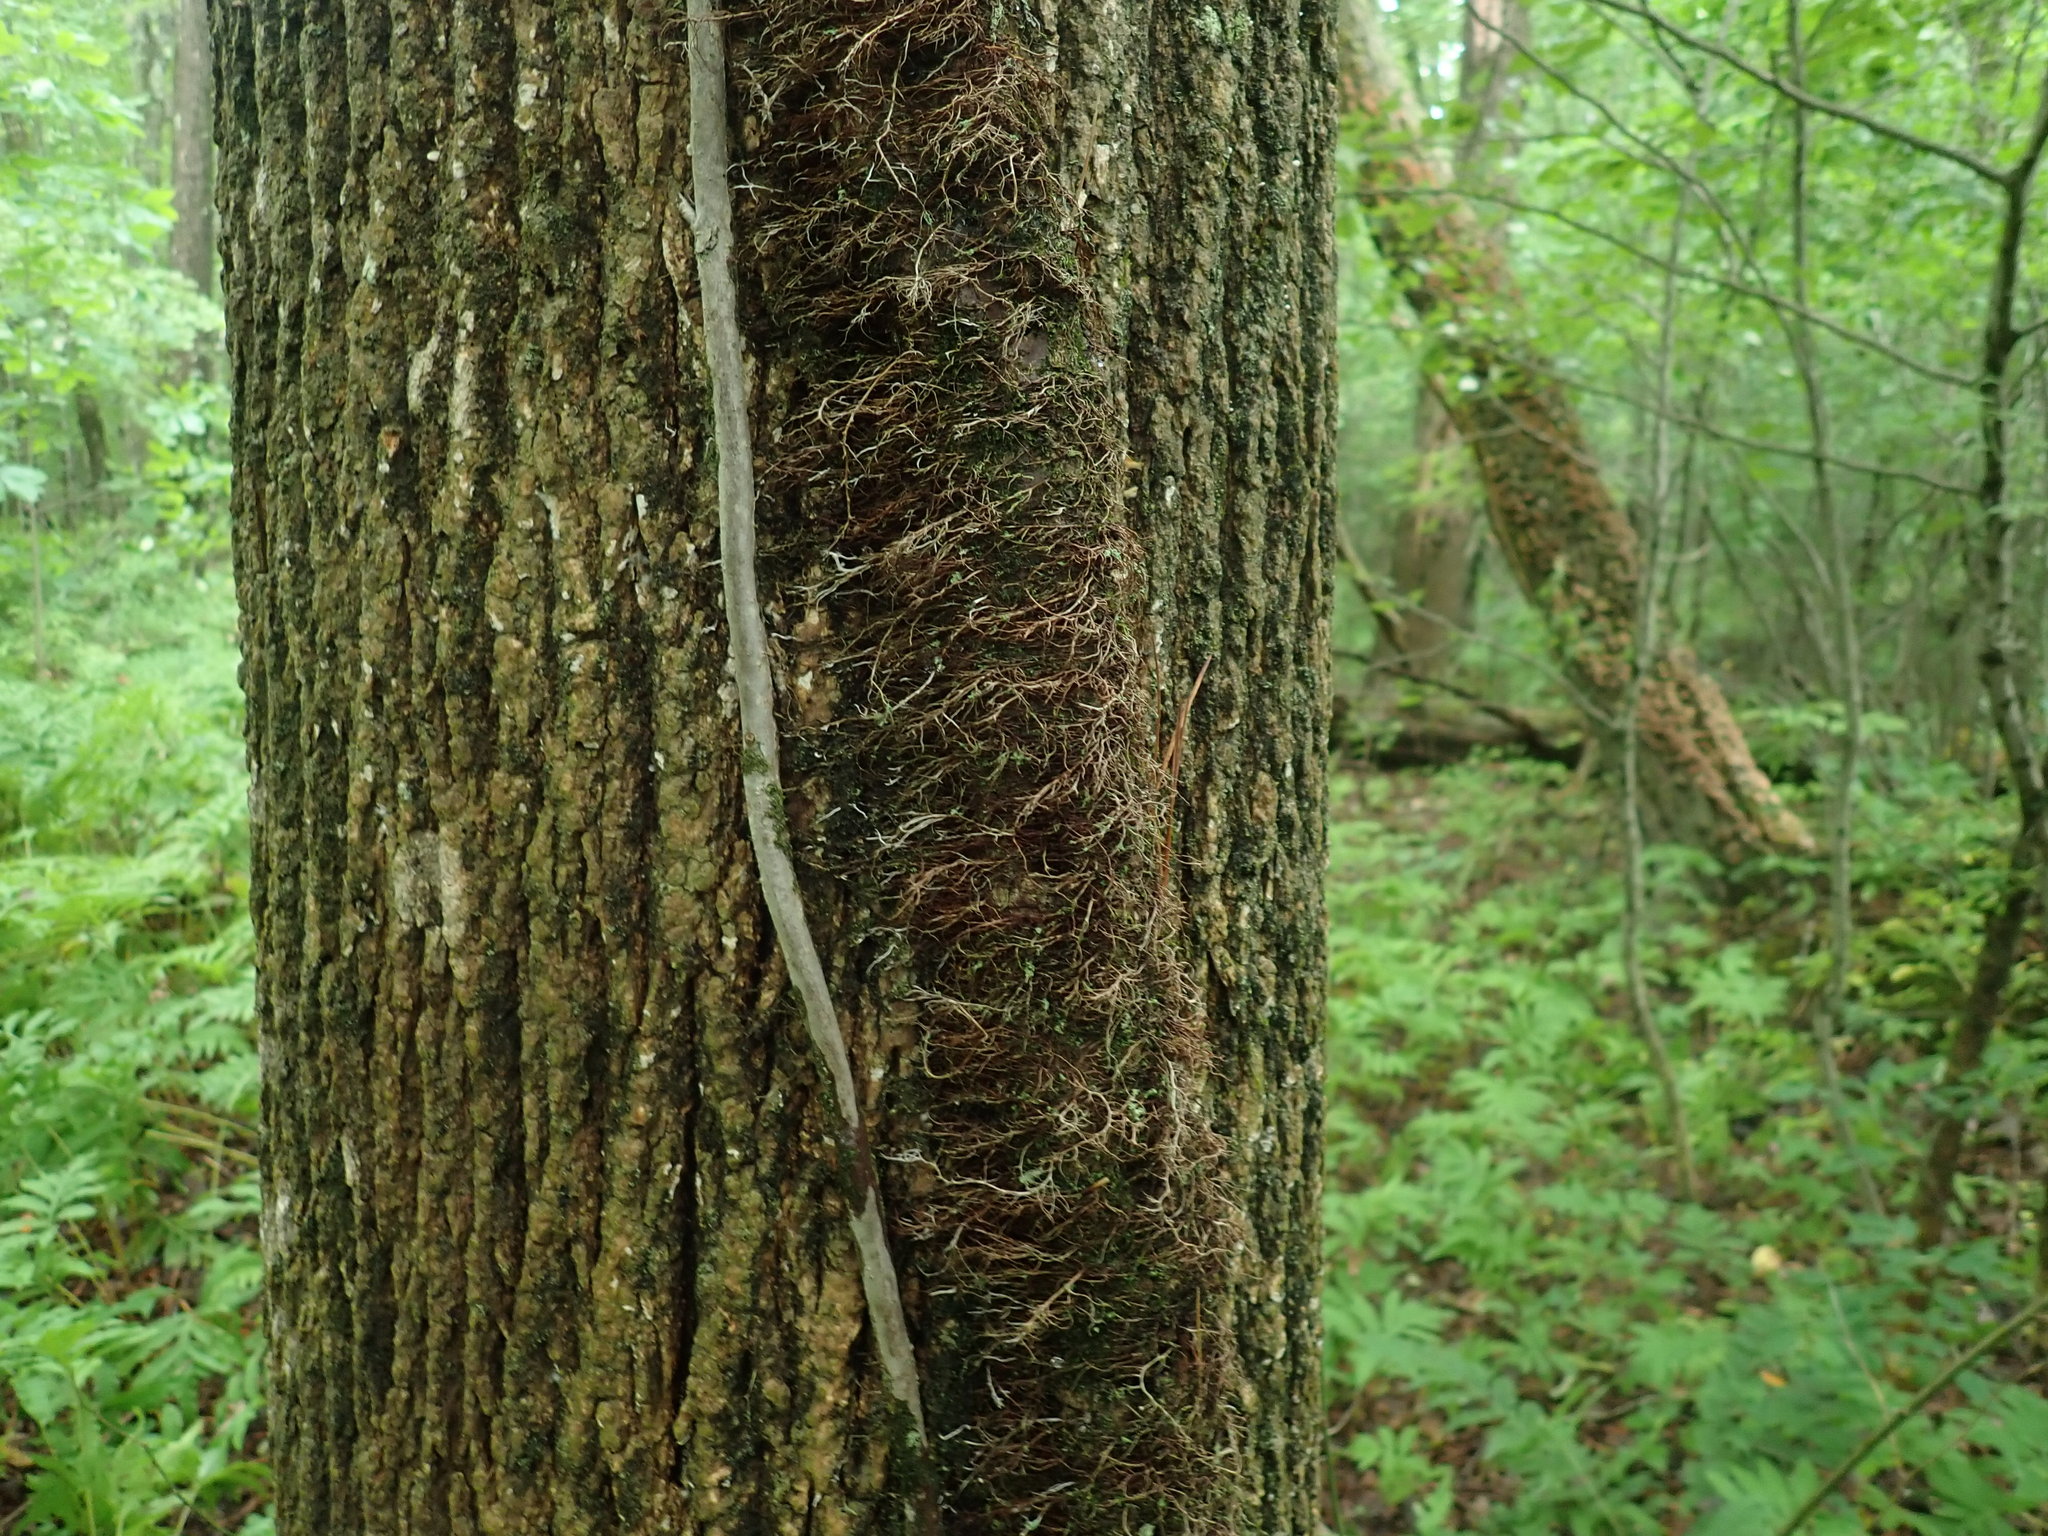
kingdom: Plantae
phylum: Tracheophyta
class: Magnoliopsida
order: Sapindales
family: Anacardiaceae
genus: Toxicodendron
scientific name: Toxicodendron radicans
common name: Poison ivy
